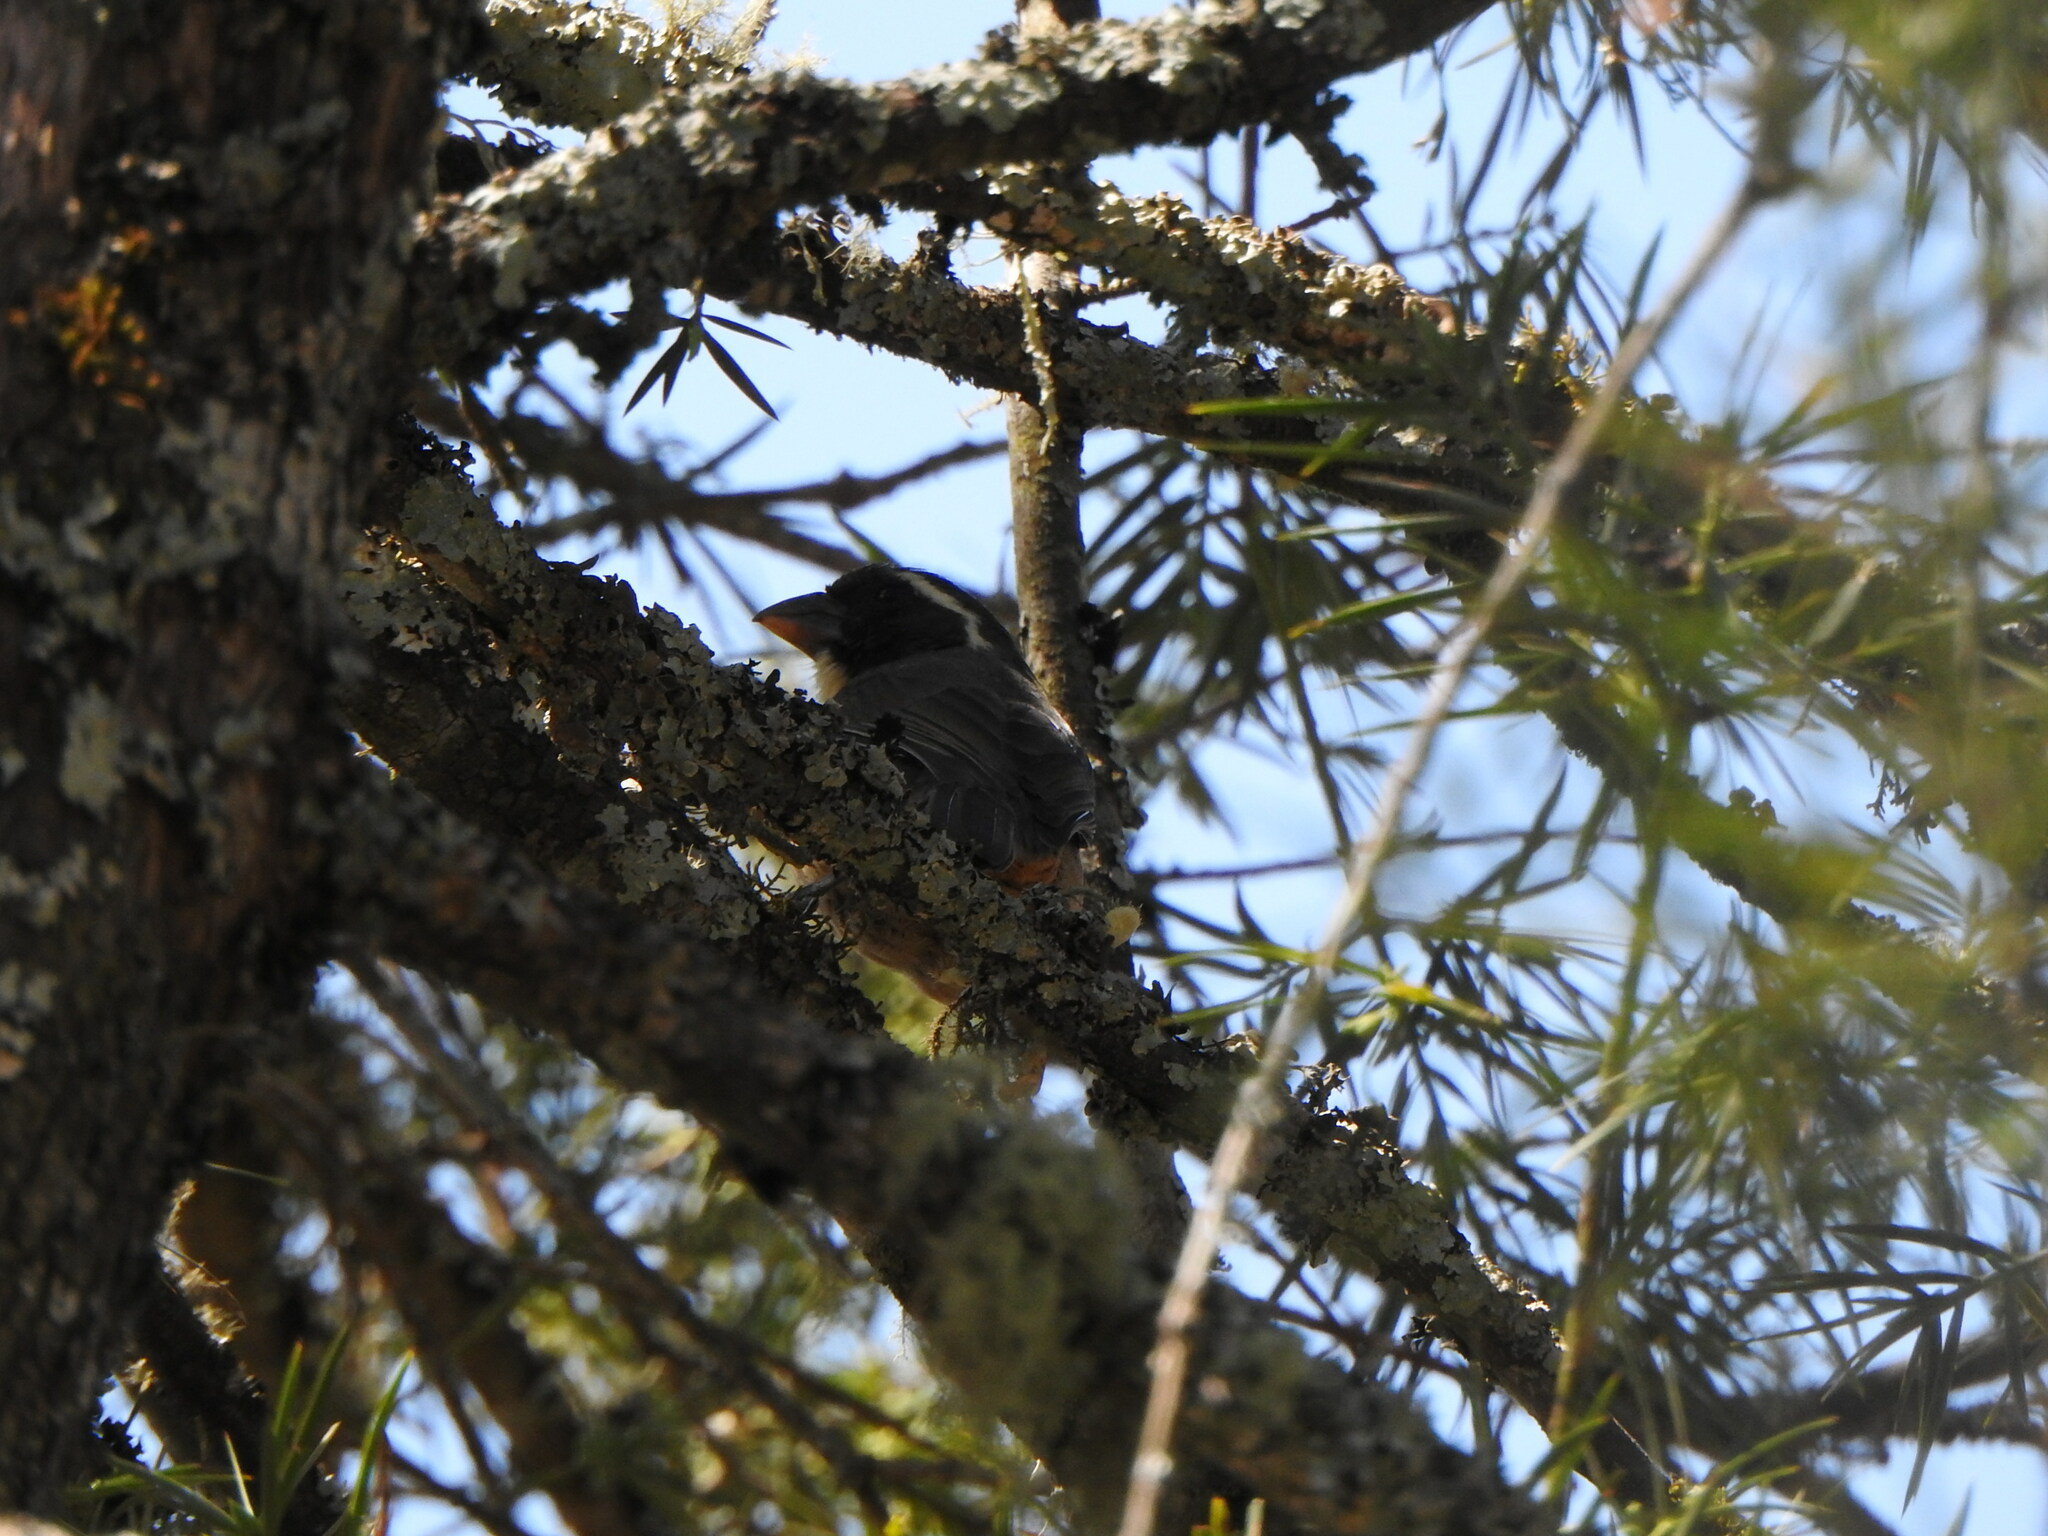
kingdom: Animalia
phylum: Chordata
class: Aves
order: Passeriformes
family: Thraupidae
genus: Saltator
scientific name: Saltator aurantiirostris
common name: Golden-billed saltator
